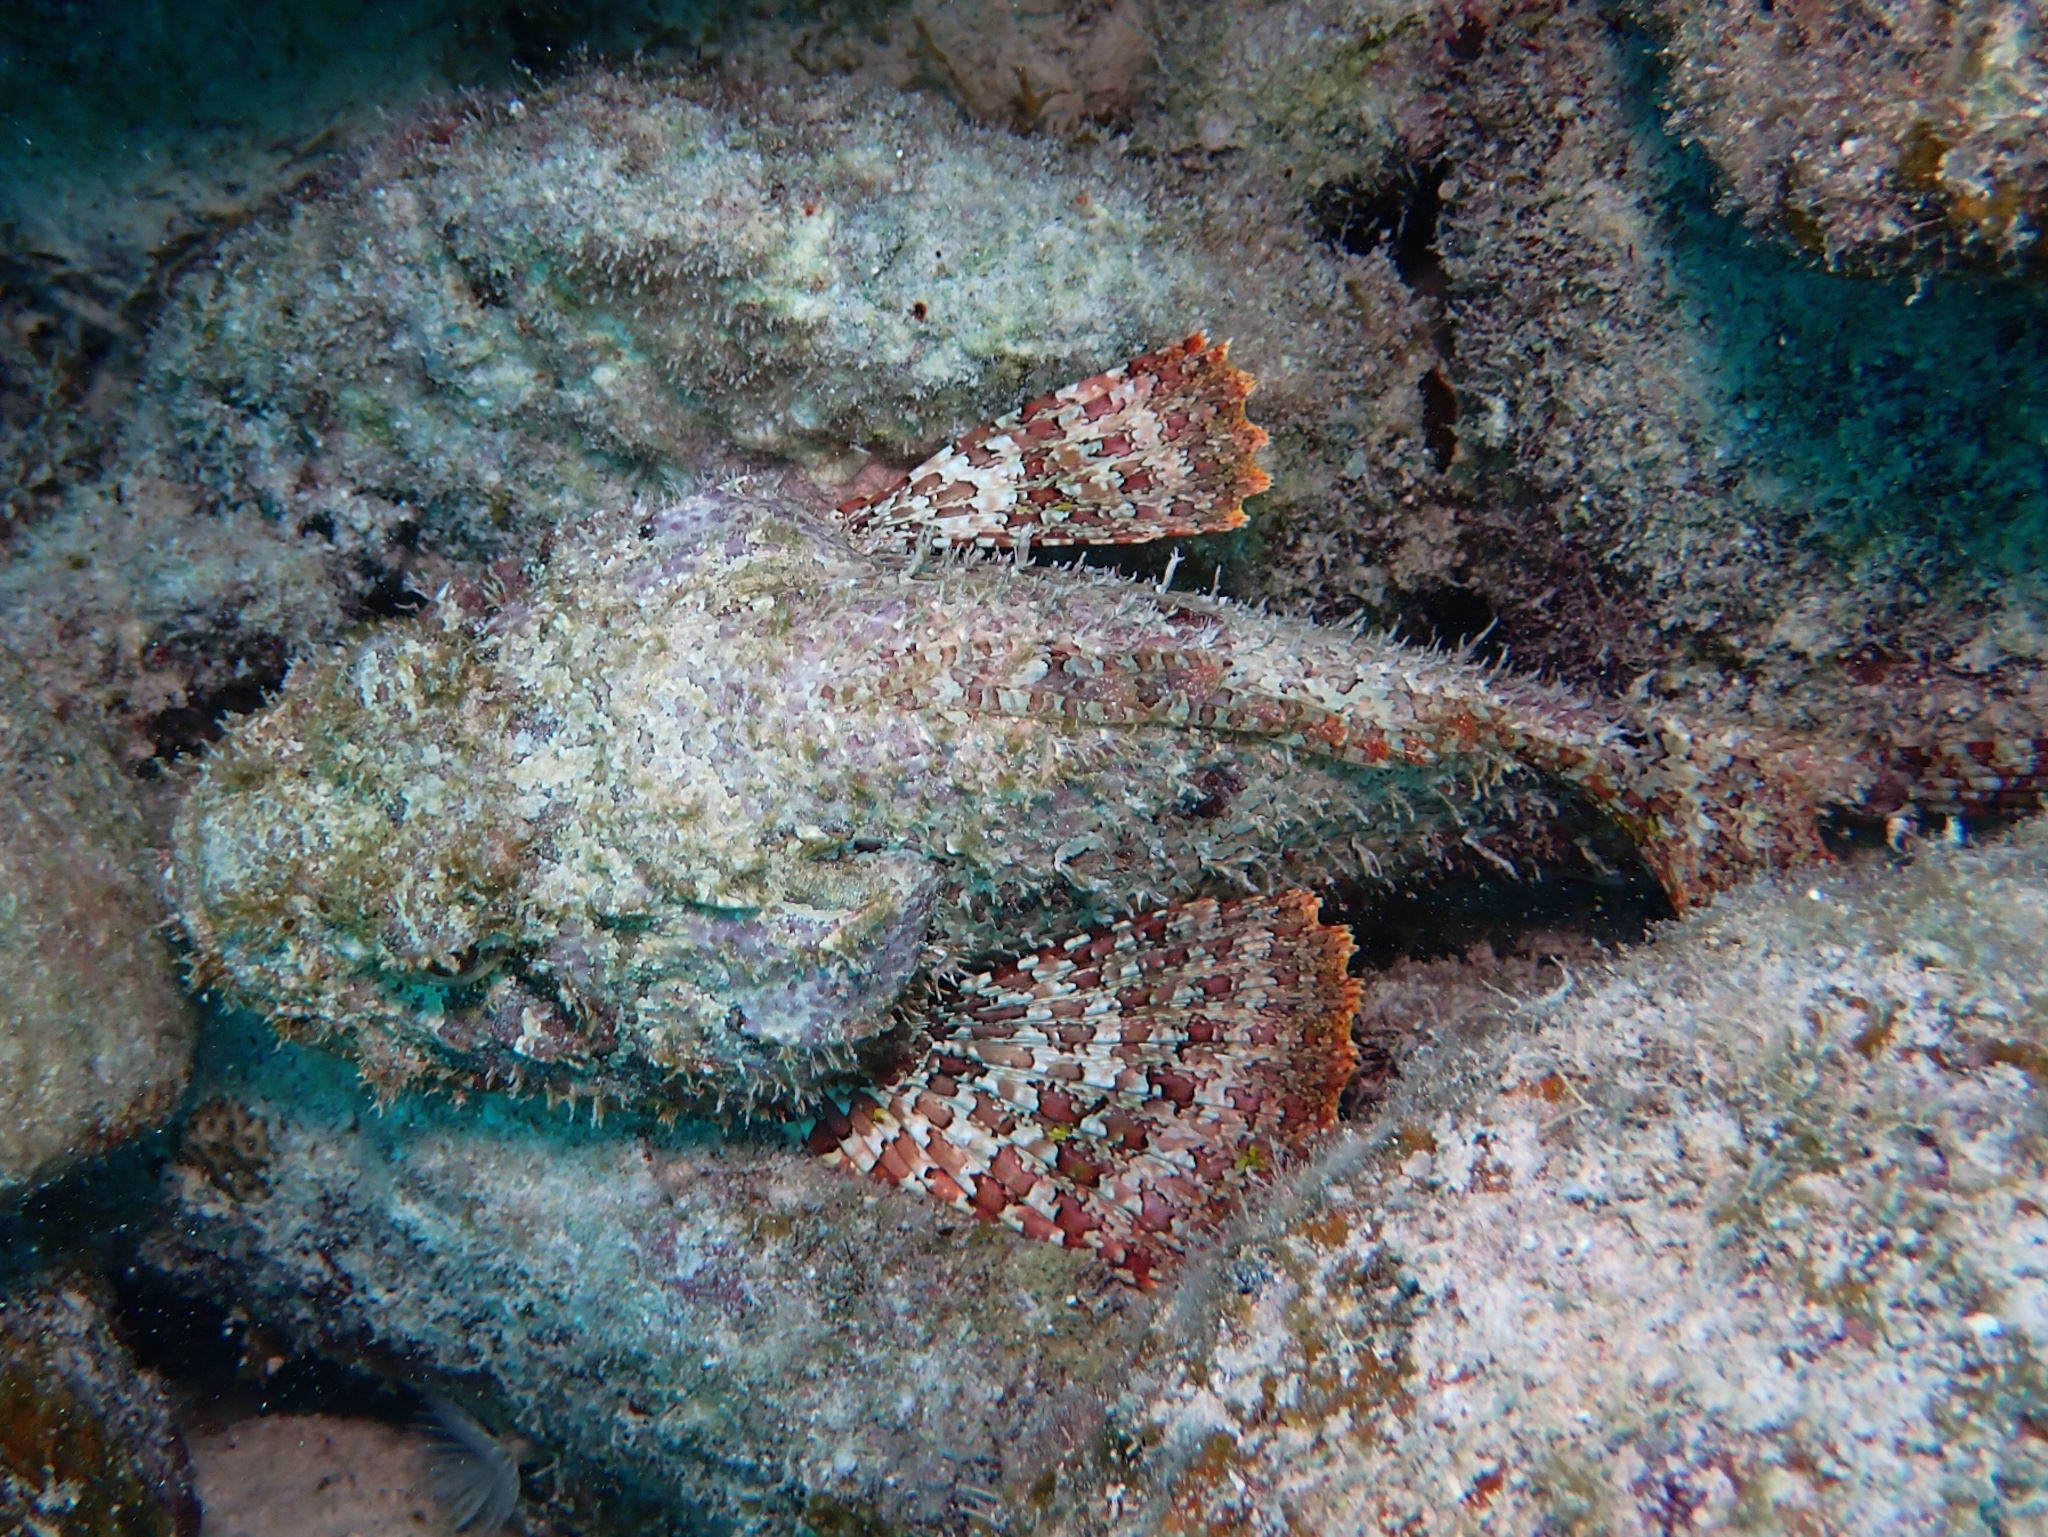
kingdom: Animalia
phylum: Chordata
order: Scorpaeniformes
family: Scorpaenidae
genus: Scorpaena
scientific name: Scorpaena plumieri
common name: Spotted scorpionfish
